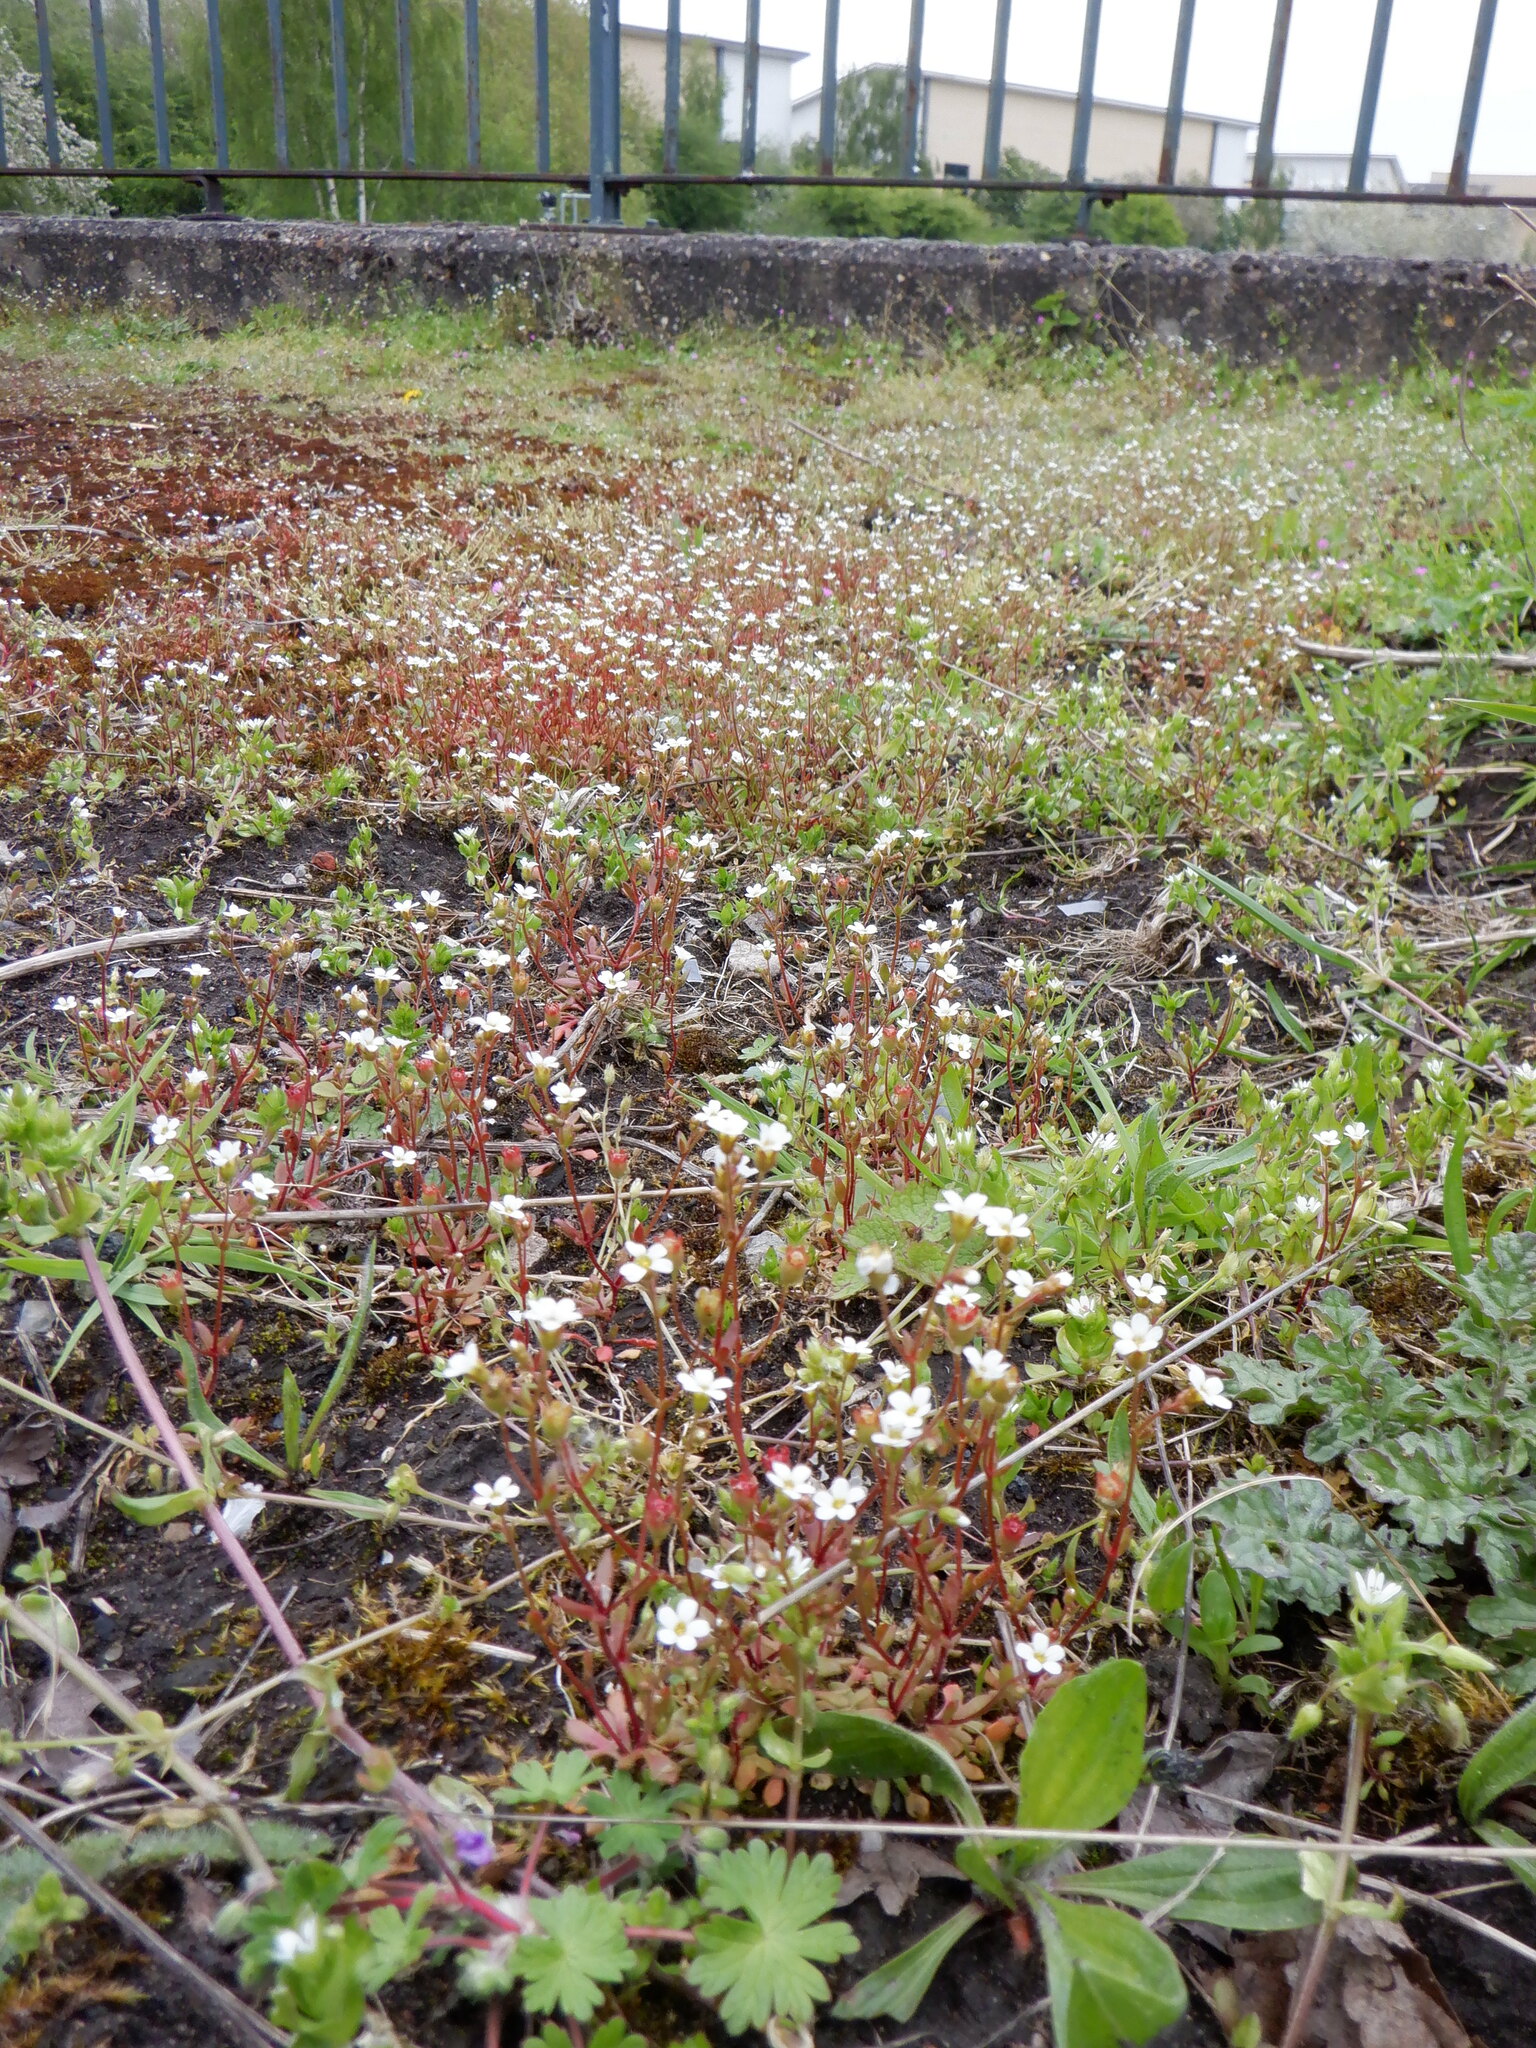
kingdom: Plantae
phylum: Tracheophyta
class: Magnoliopsida
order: Saxifragales
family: Saxifragaceae
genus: Saxifraga
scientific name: Saxifraga tridactylites
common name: Rue-leaved saxifrage
